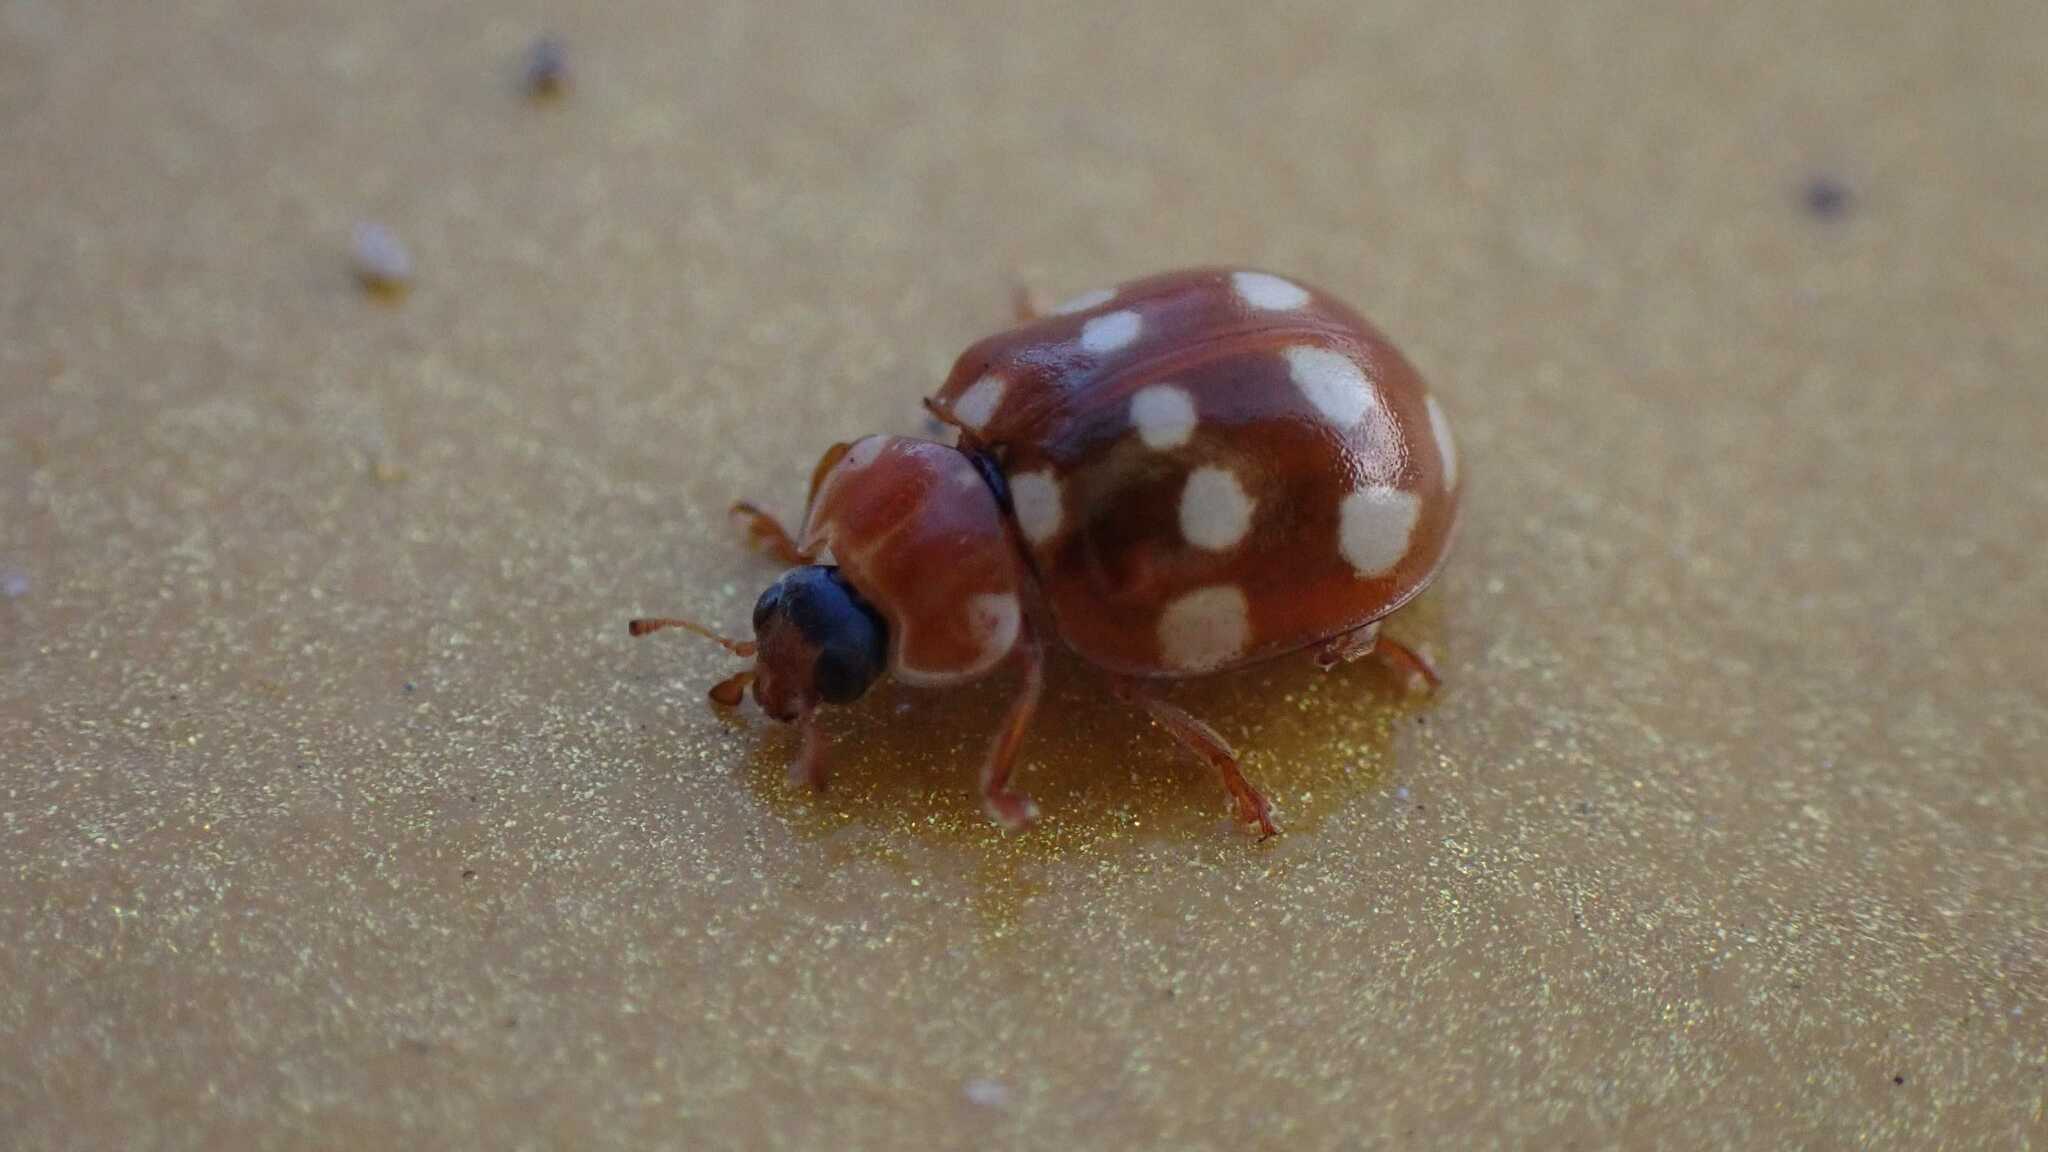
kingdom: Animalia
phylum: Arthropoda
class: Insecta
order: Coleoptera
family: Coccinellidae
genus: Calvia
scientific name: Calvia quatuordecimguttata
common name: Cream-spot ladybird
